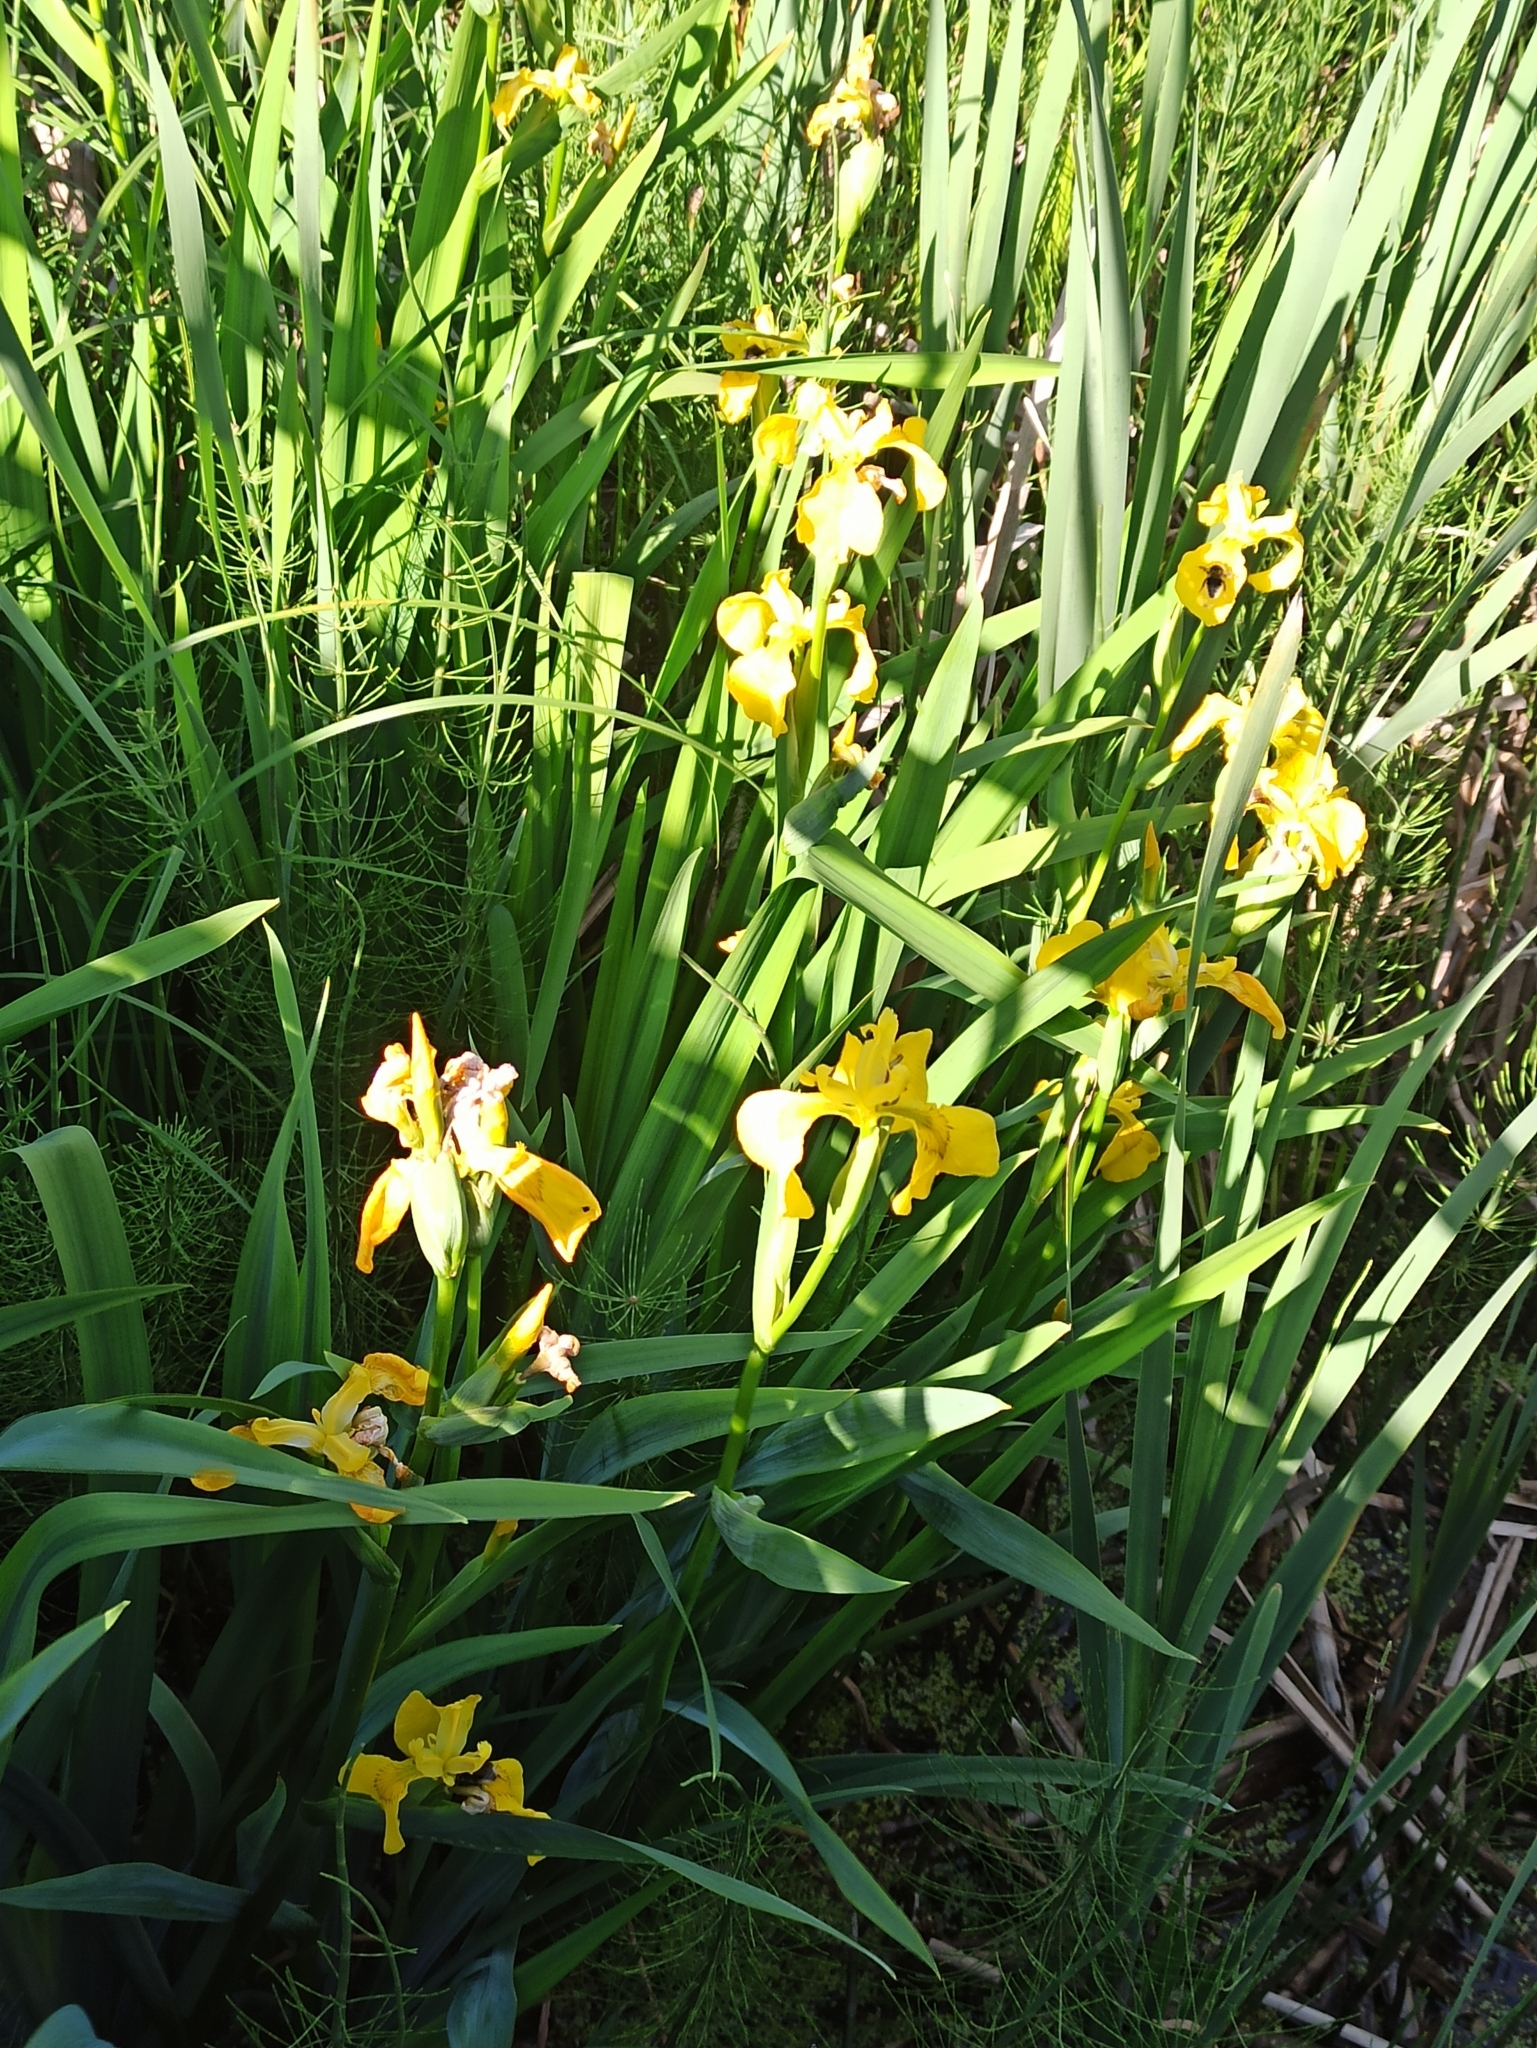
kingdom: Plantae
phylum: Tracheophyta
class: Liliopsida
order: Asparagales
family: Iridaceae
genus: Iris
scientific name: Iris pseudacorus
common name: Yellow flag
